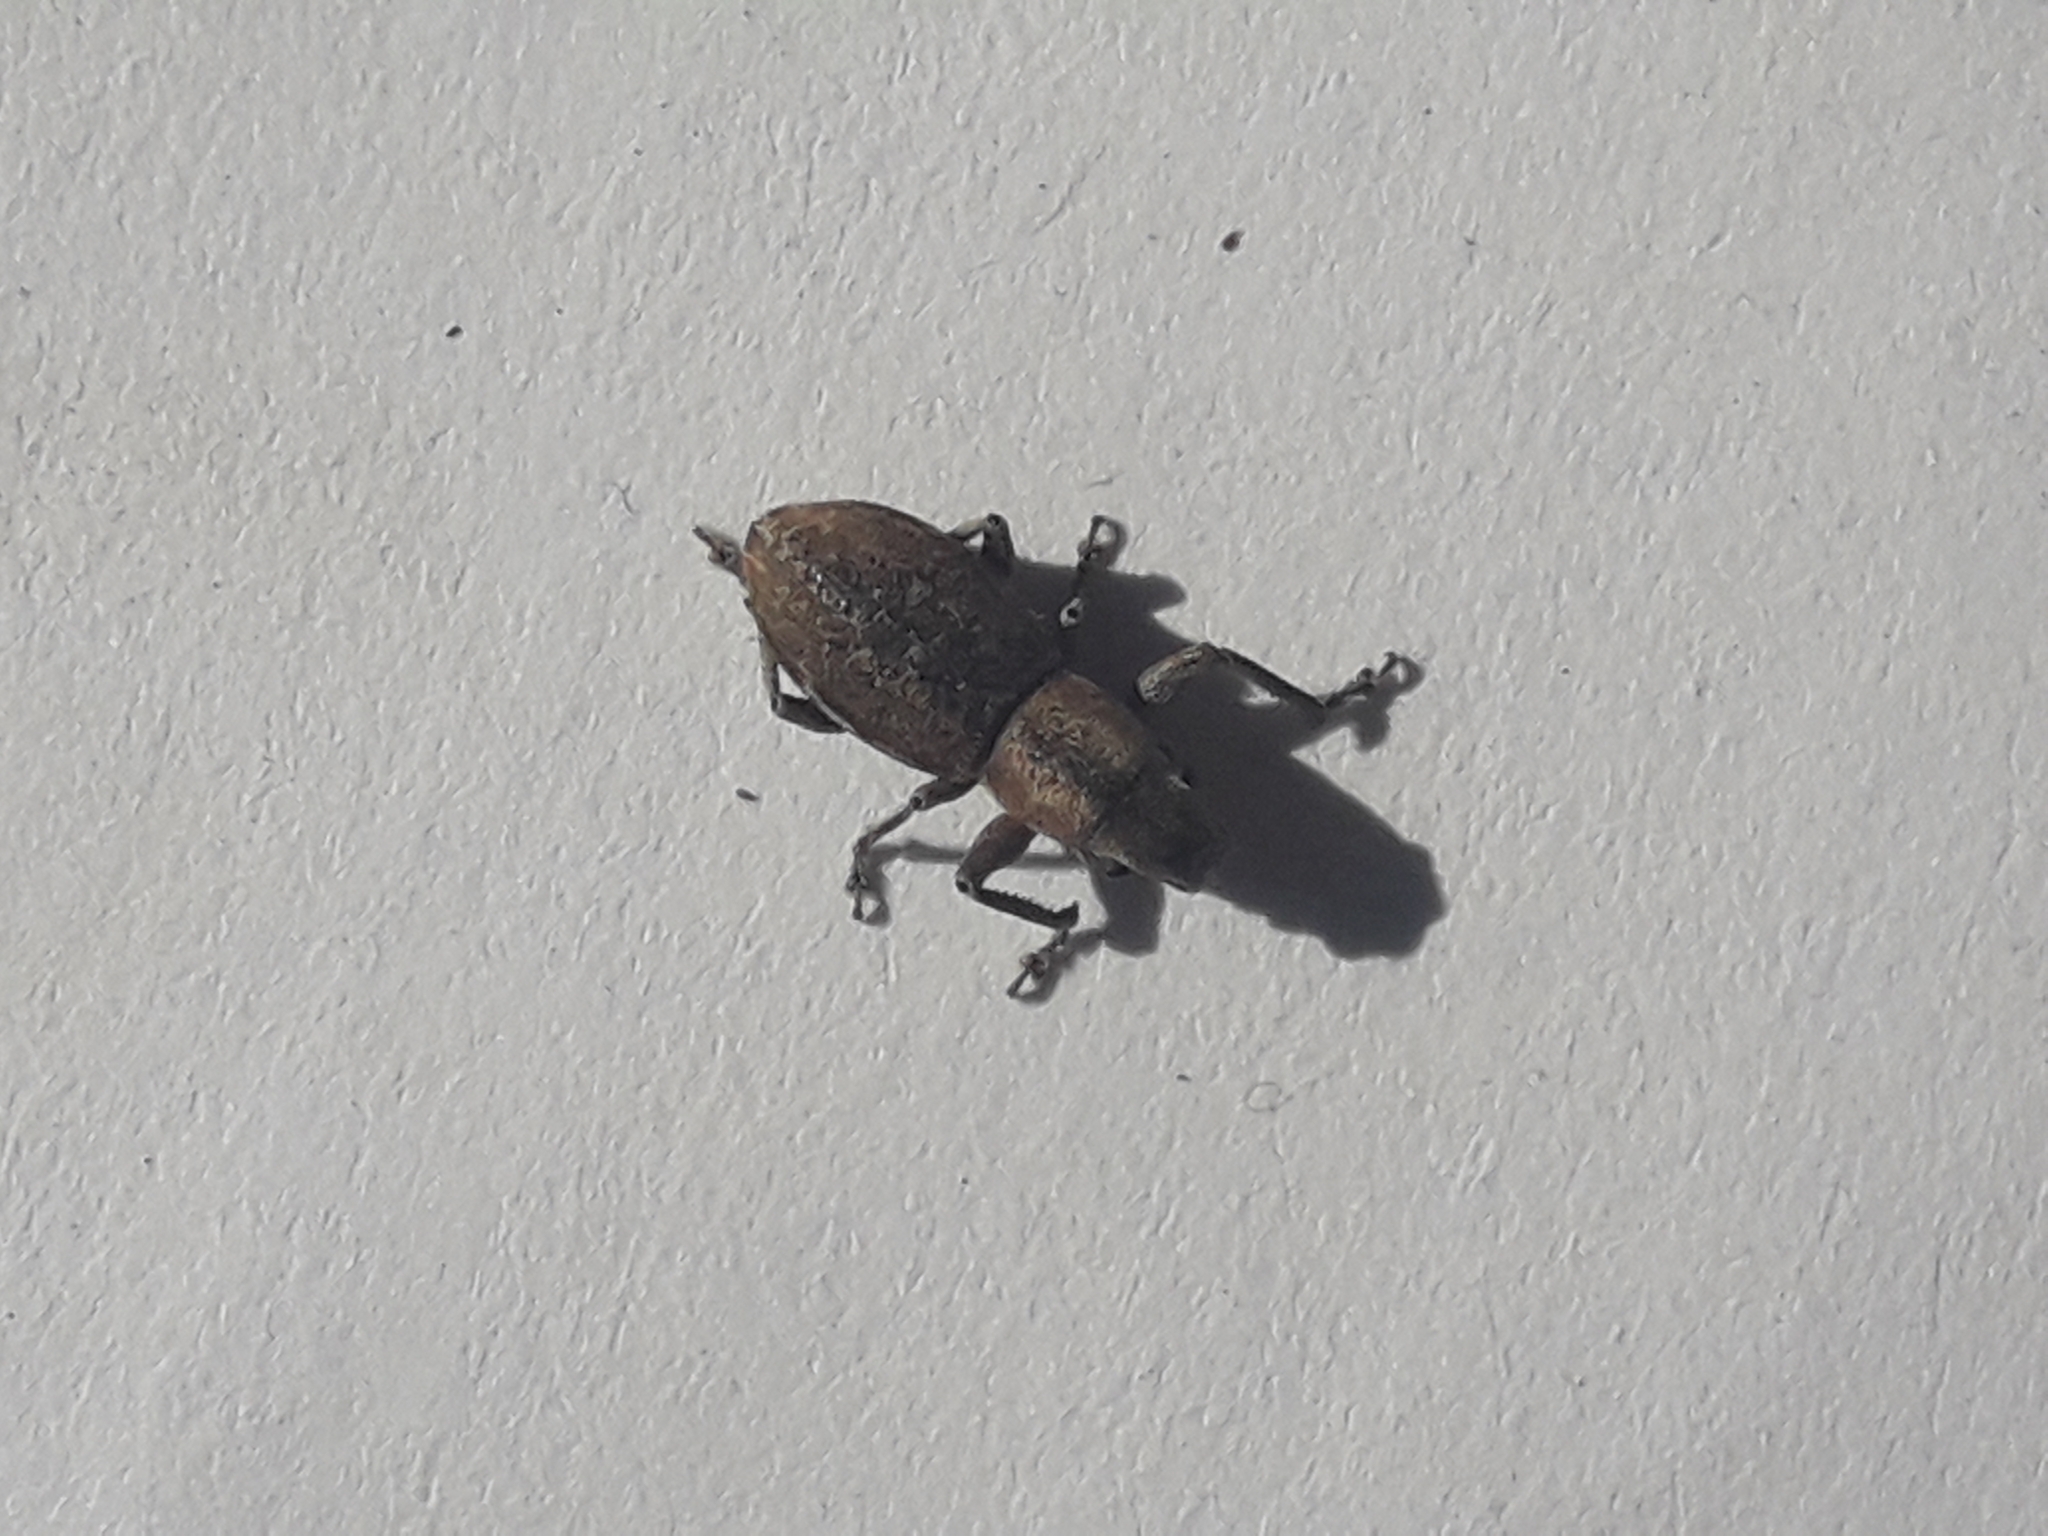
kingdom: Animalia
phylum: Arthropoda
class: Insecta
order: Coleoptera
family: Curculionidae
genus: Naupactus
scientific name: Naupactus cervinus
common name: Fuller rose beetle
